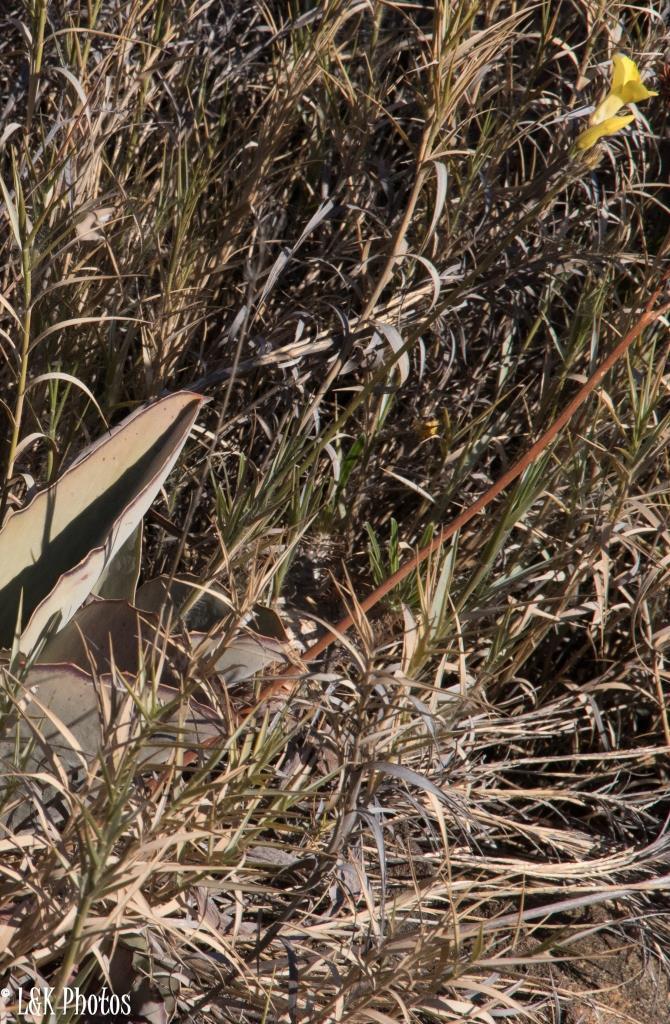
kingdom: Plantae
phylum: Tracheophyta
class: Magnoliopsida
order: Saxifragales
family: Crassulaceae
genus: Kalanchoe
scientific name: Kalanchoe synsepala
